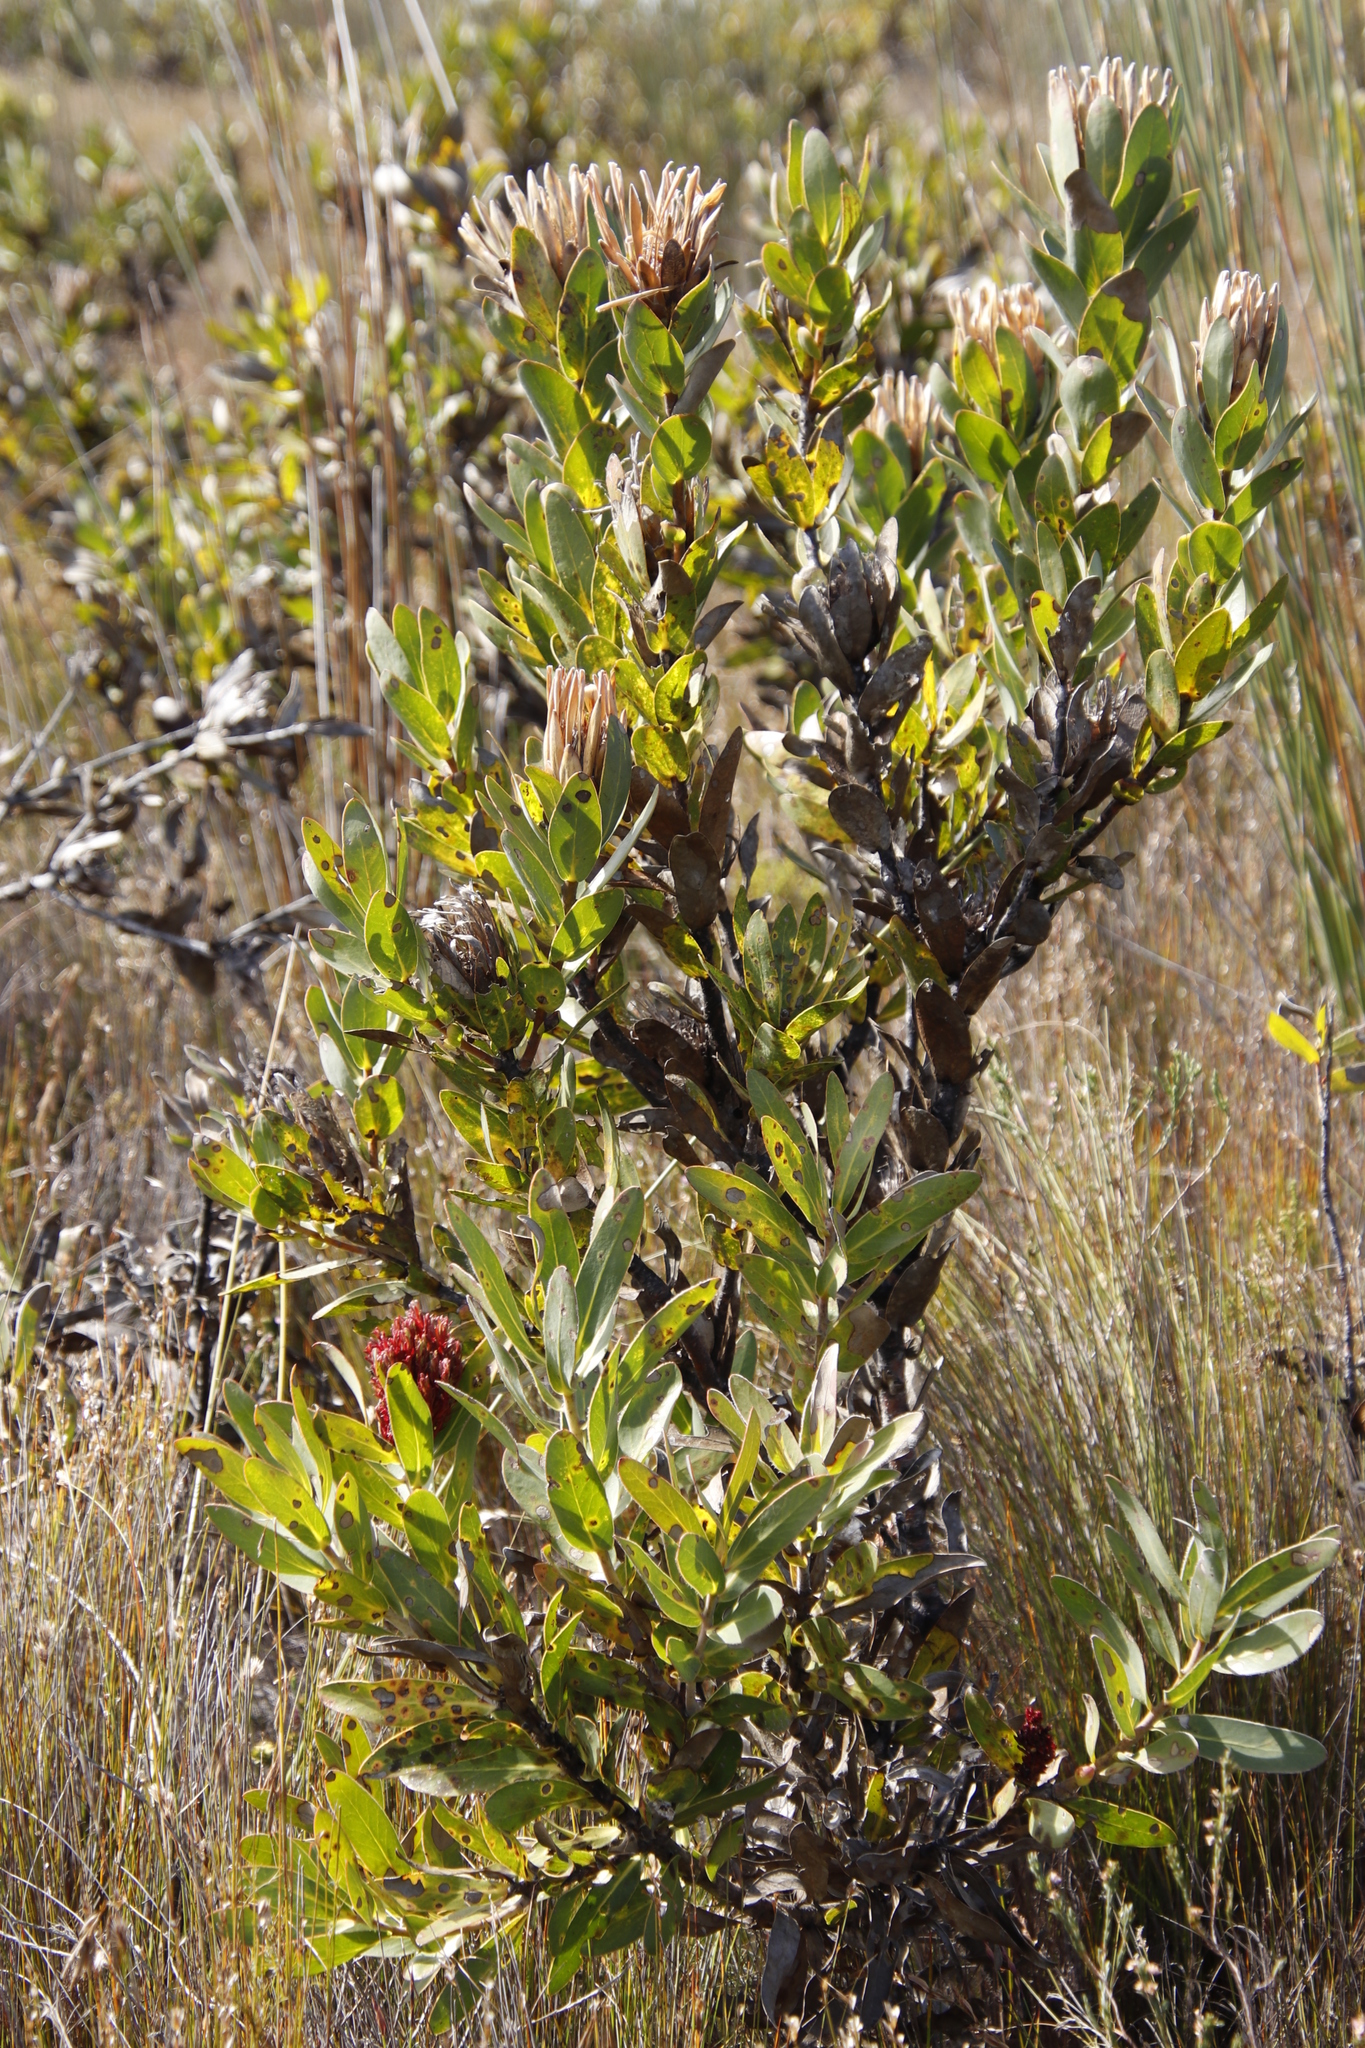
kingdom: Plantae
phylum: Tracheophyta
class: Magnoliopsida
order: Proteales
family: Proteaceae
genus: Protea
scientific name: Protea compacta
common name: Bot river protea
